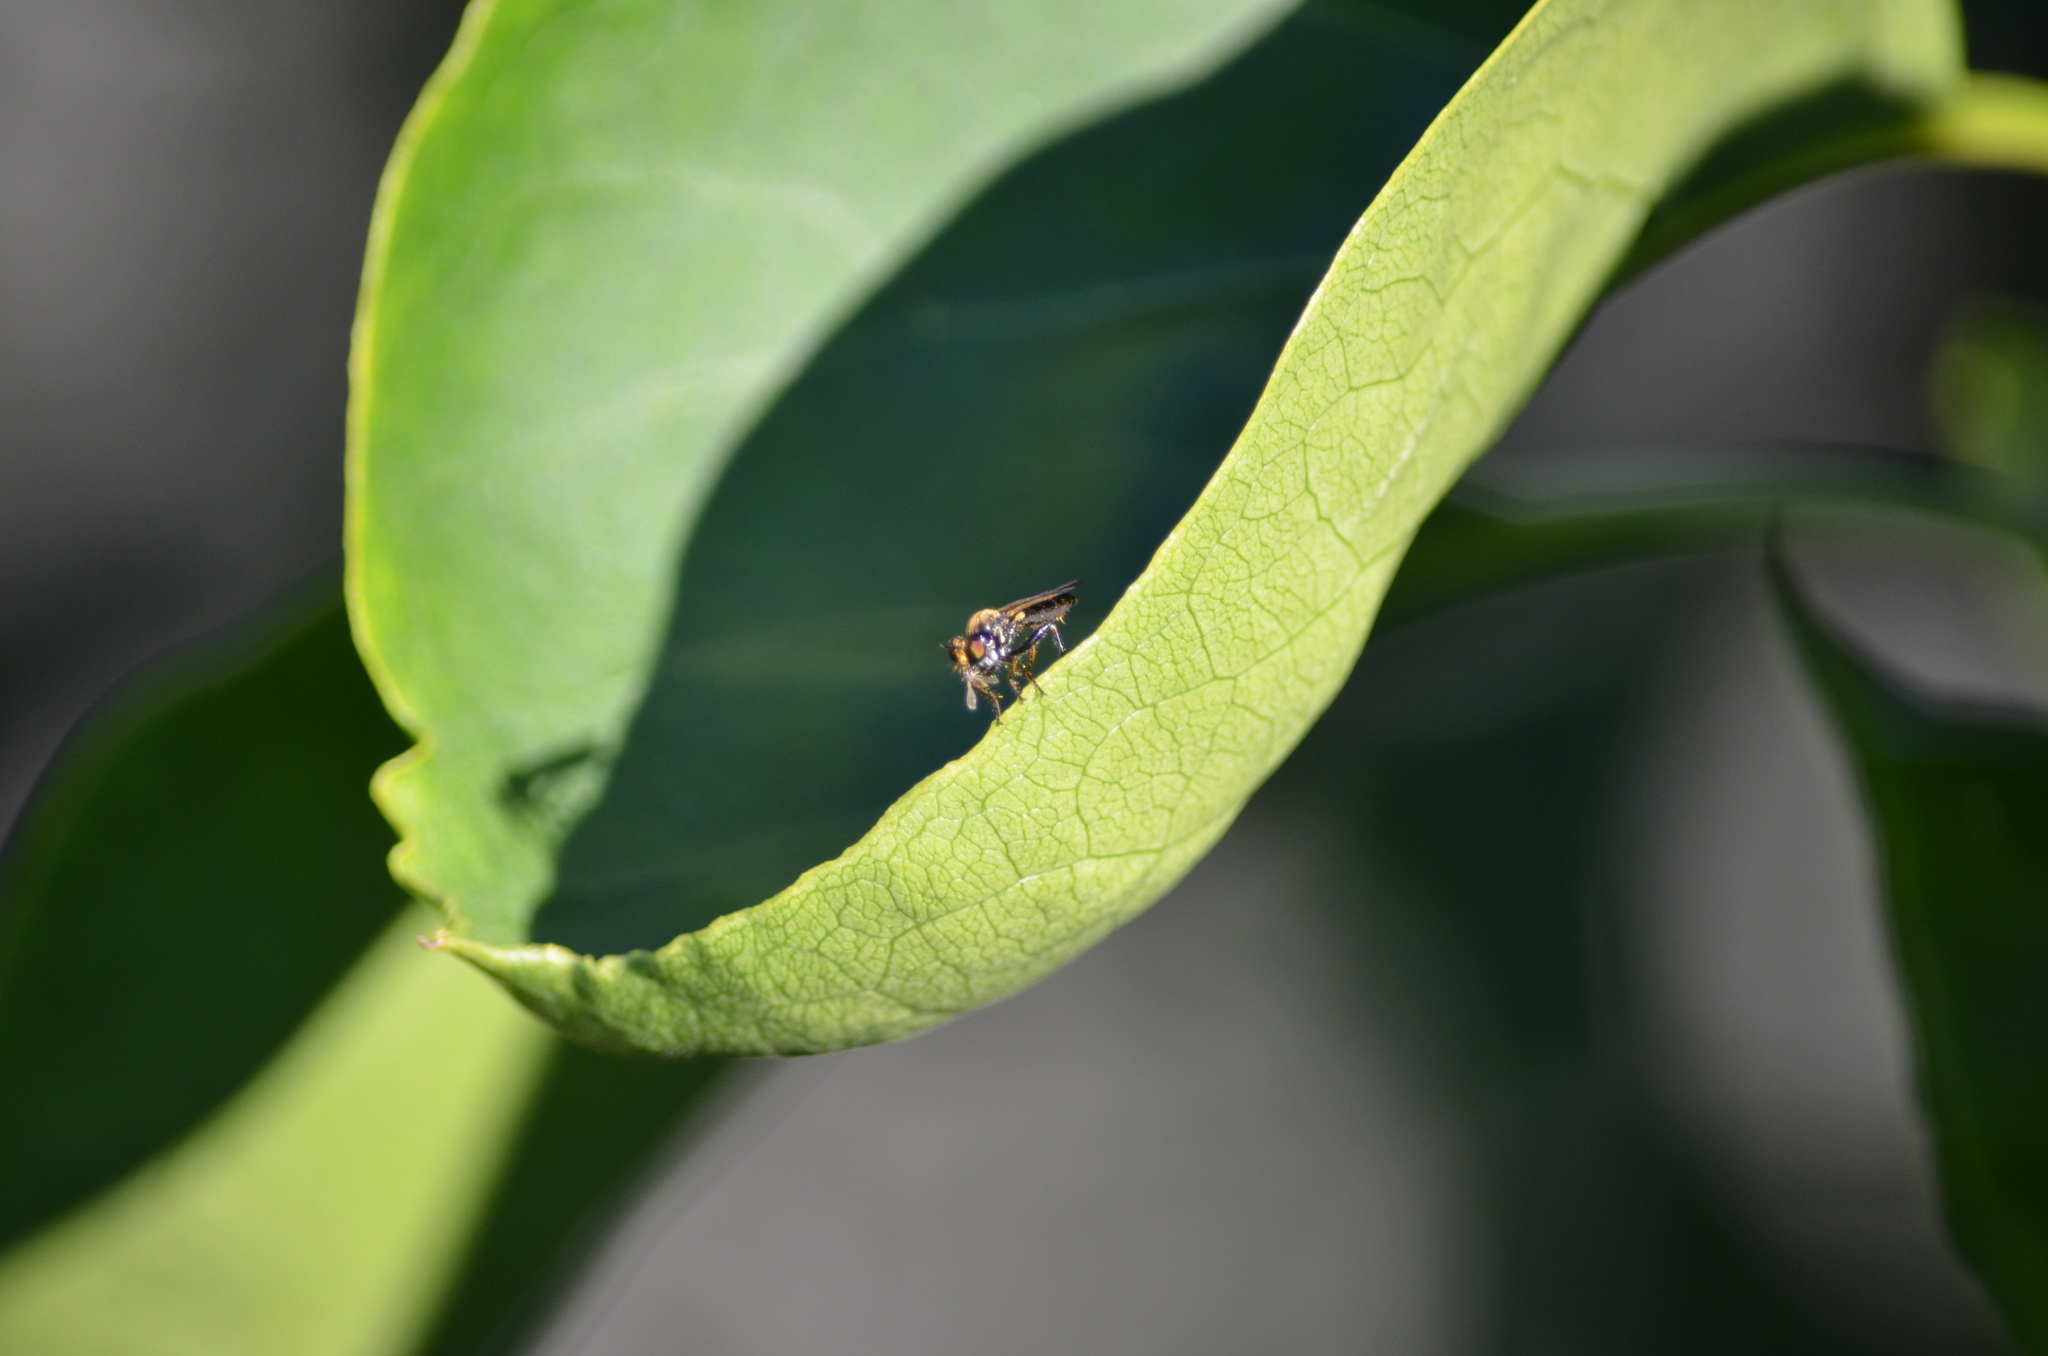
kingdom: Animalia
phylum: Arthropoda
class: Insecta
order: Diptera
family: Asilidae
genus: Eudioctria
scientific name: Eudioctria sackeni
